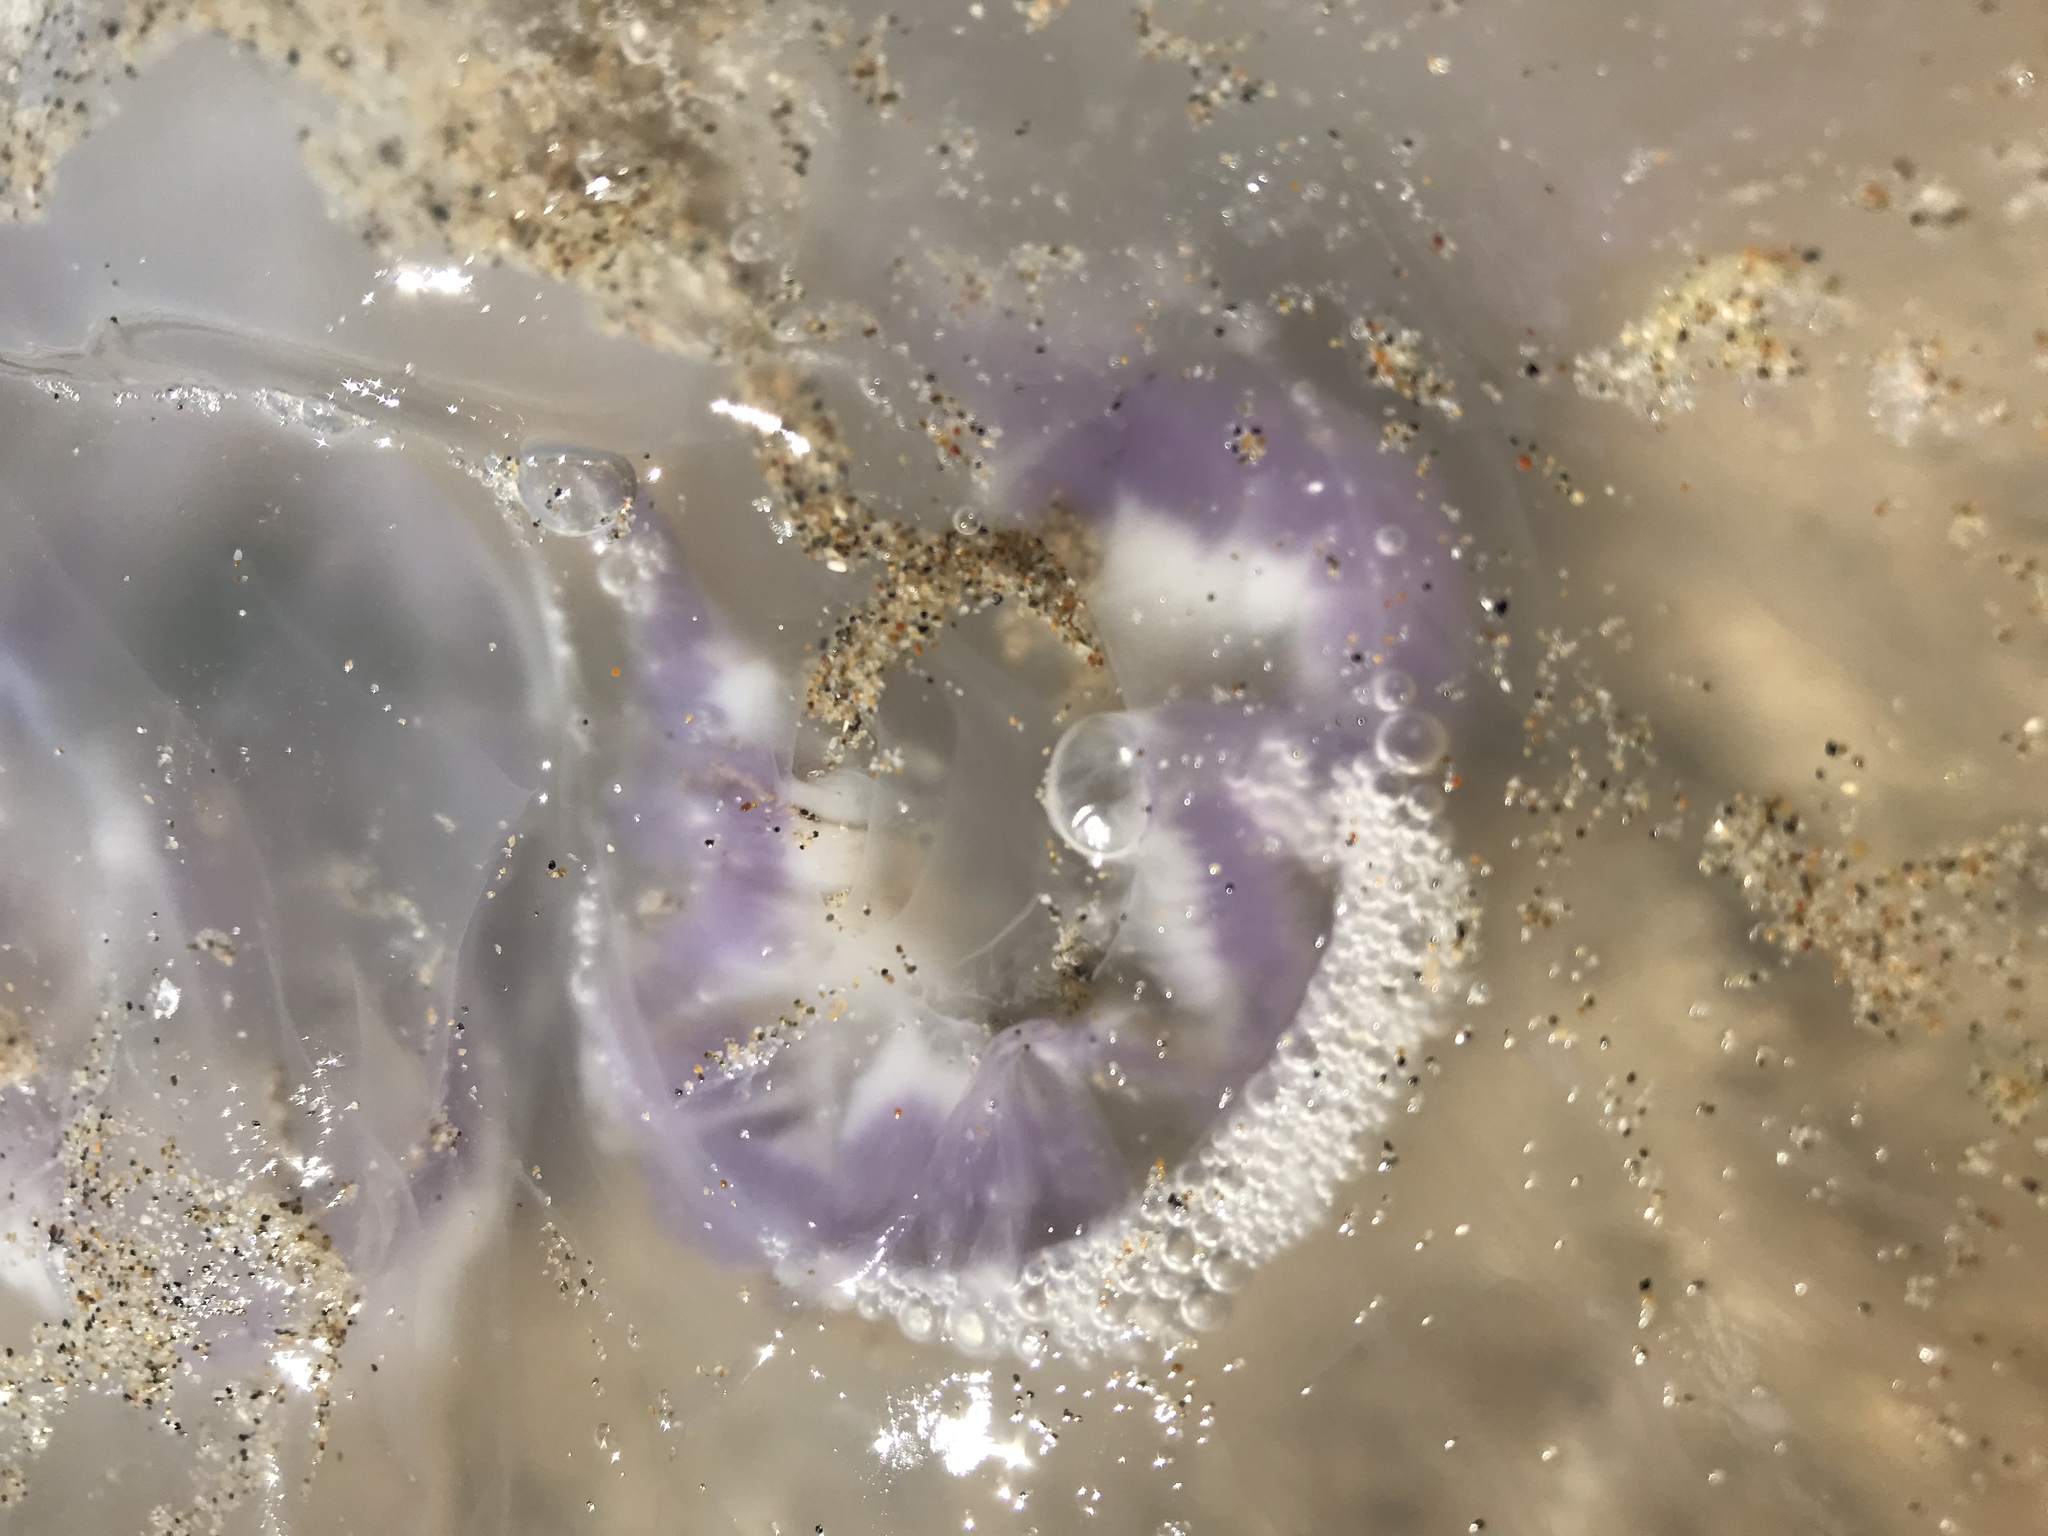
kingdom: Animalia
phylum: Cnidaria
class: Scyphozoa
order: Semaeostomeae
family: Ulmaridae
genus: Aurelia
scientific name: Aurelia labiata
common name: Pacific moon jelly
